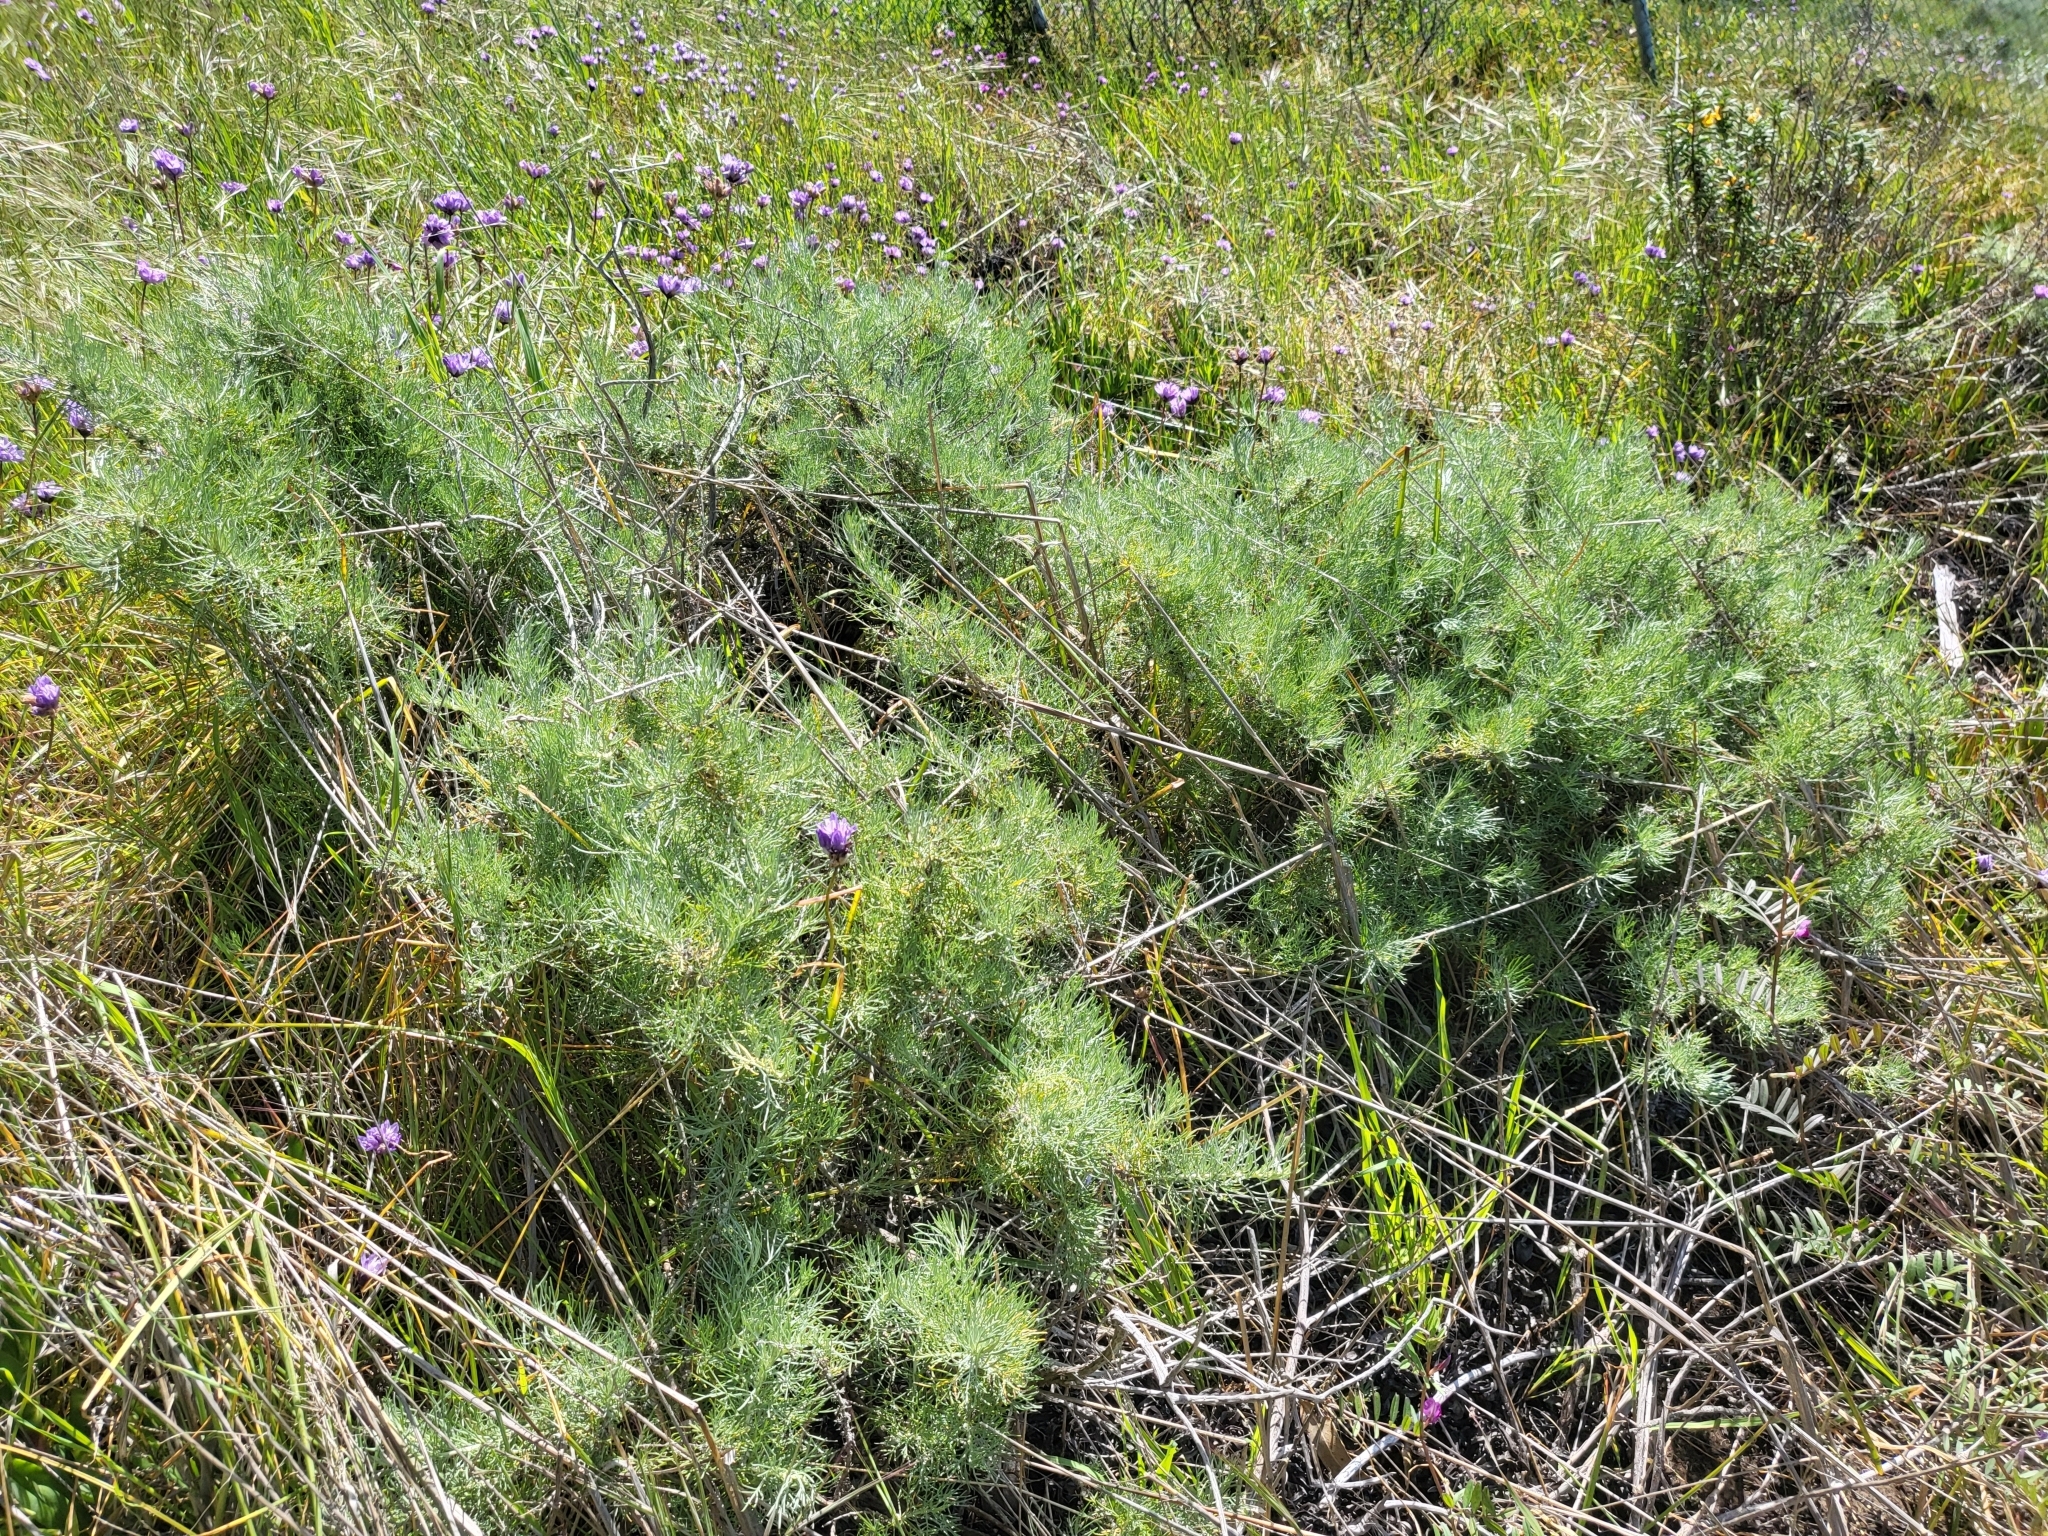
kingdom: Plantae
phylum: Tracheophyta
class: Magnoliopsida
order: Asterales
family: Asteraceae
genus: Artemisia
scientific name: Artemisia californica
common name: California sagebrush
